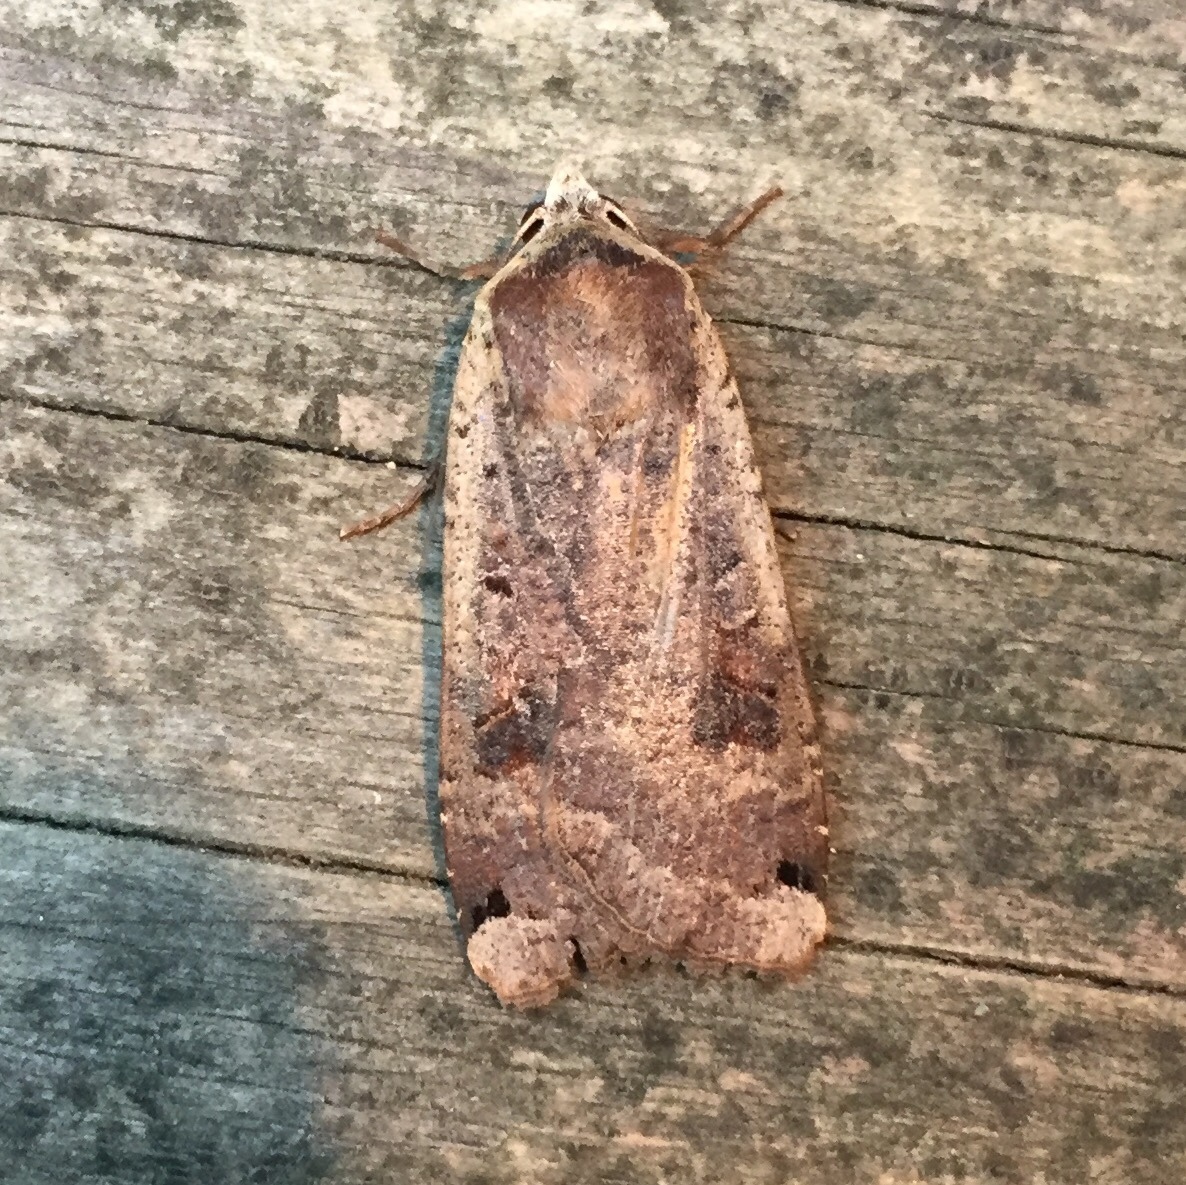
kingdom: Animalia
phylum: Arthropoda
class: Insecta
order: Lepidoptera
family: Noctuidae
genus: Noctua
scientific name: Noctua pronuba
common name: Large yellow underwing
